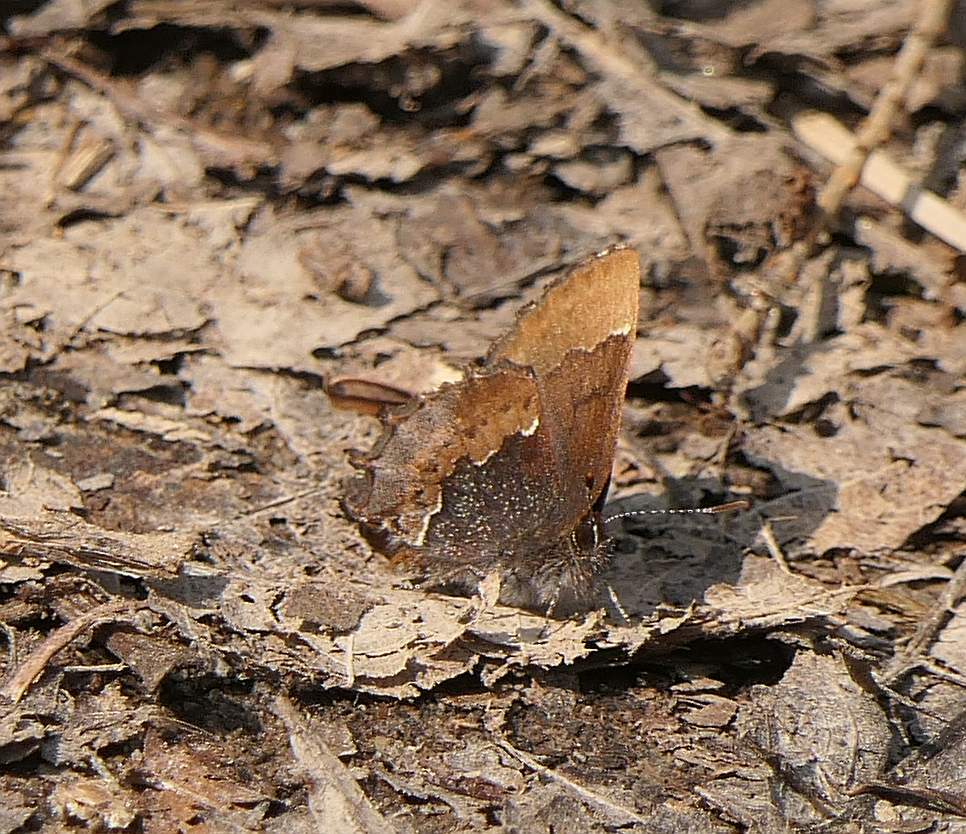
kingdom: Animalia
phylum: Arthropoda
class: Insecta
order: Lepidoptera
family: Lycaenidae
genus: Incisalia
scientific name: Incisalia henrici
